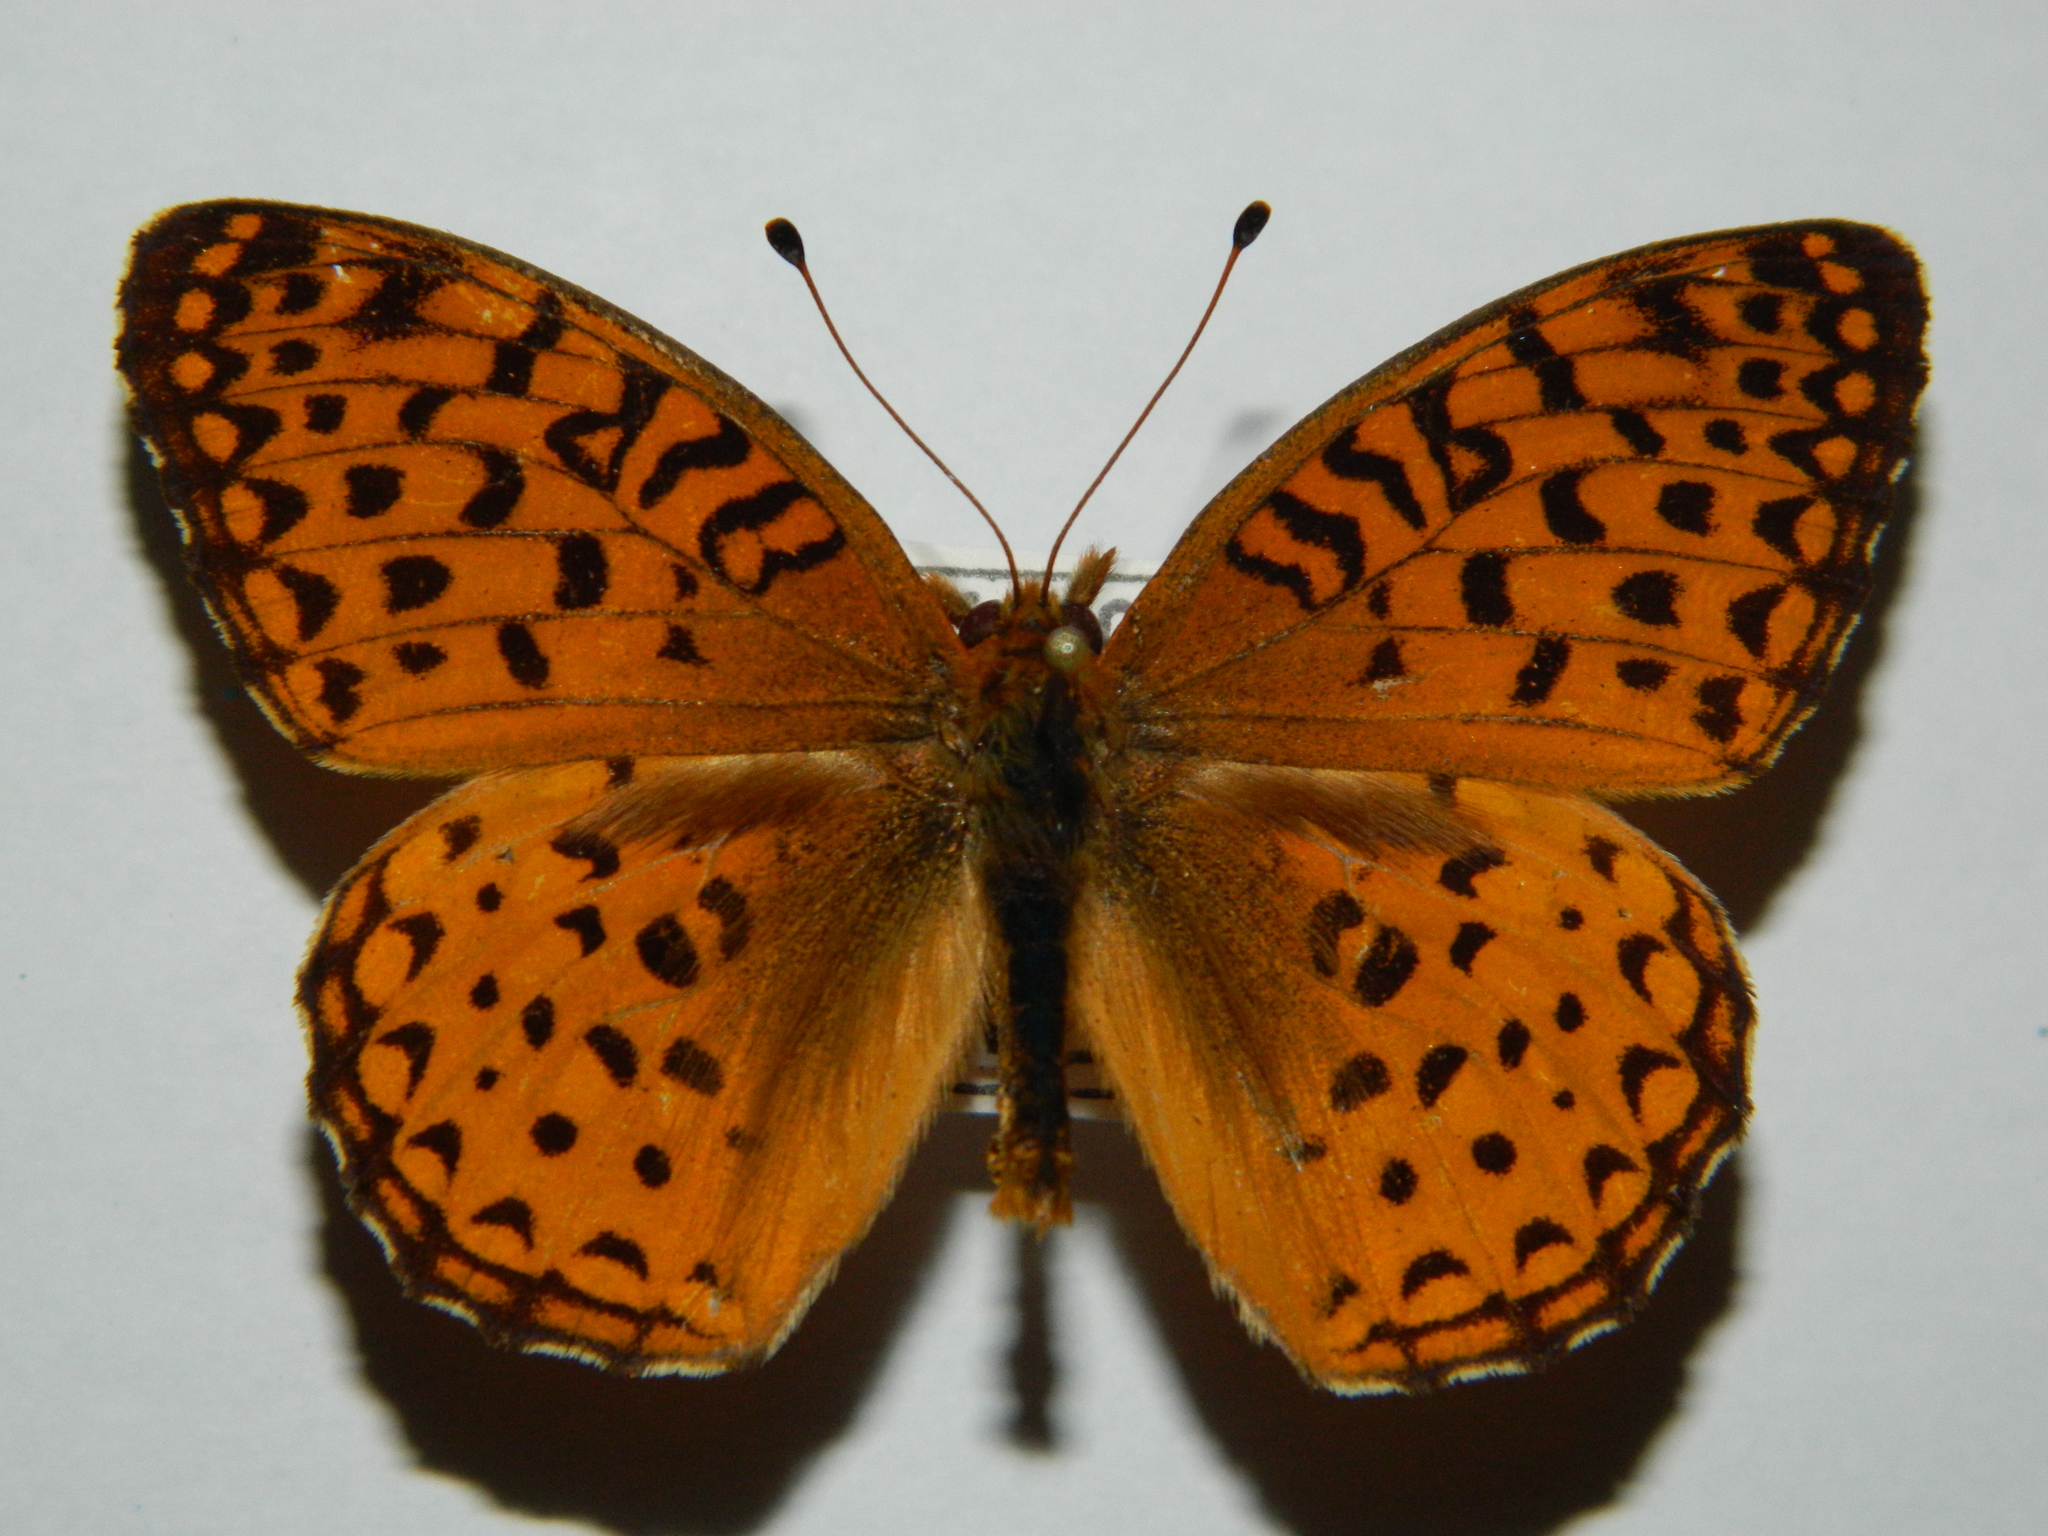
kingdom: Animalia
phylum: Arthropoda
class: Insecta
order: Lepidoptera
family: Nymphalidae
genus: Speyeria
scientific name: Speyeria aphrodite
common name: Aphrodite friitllary
